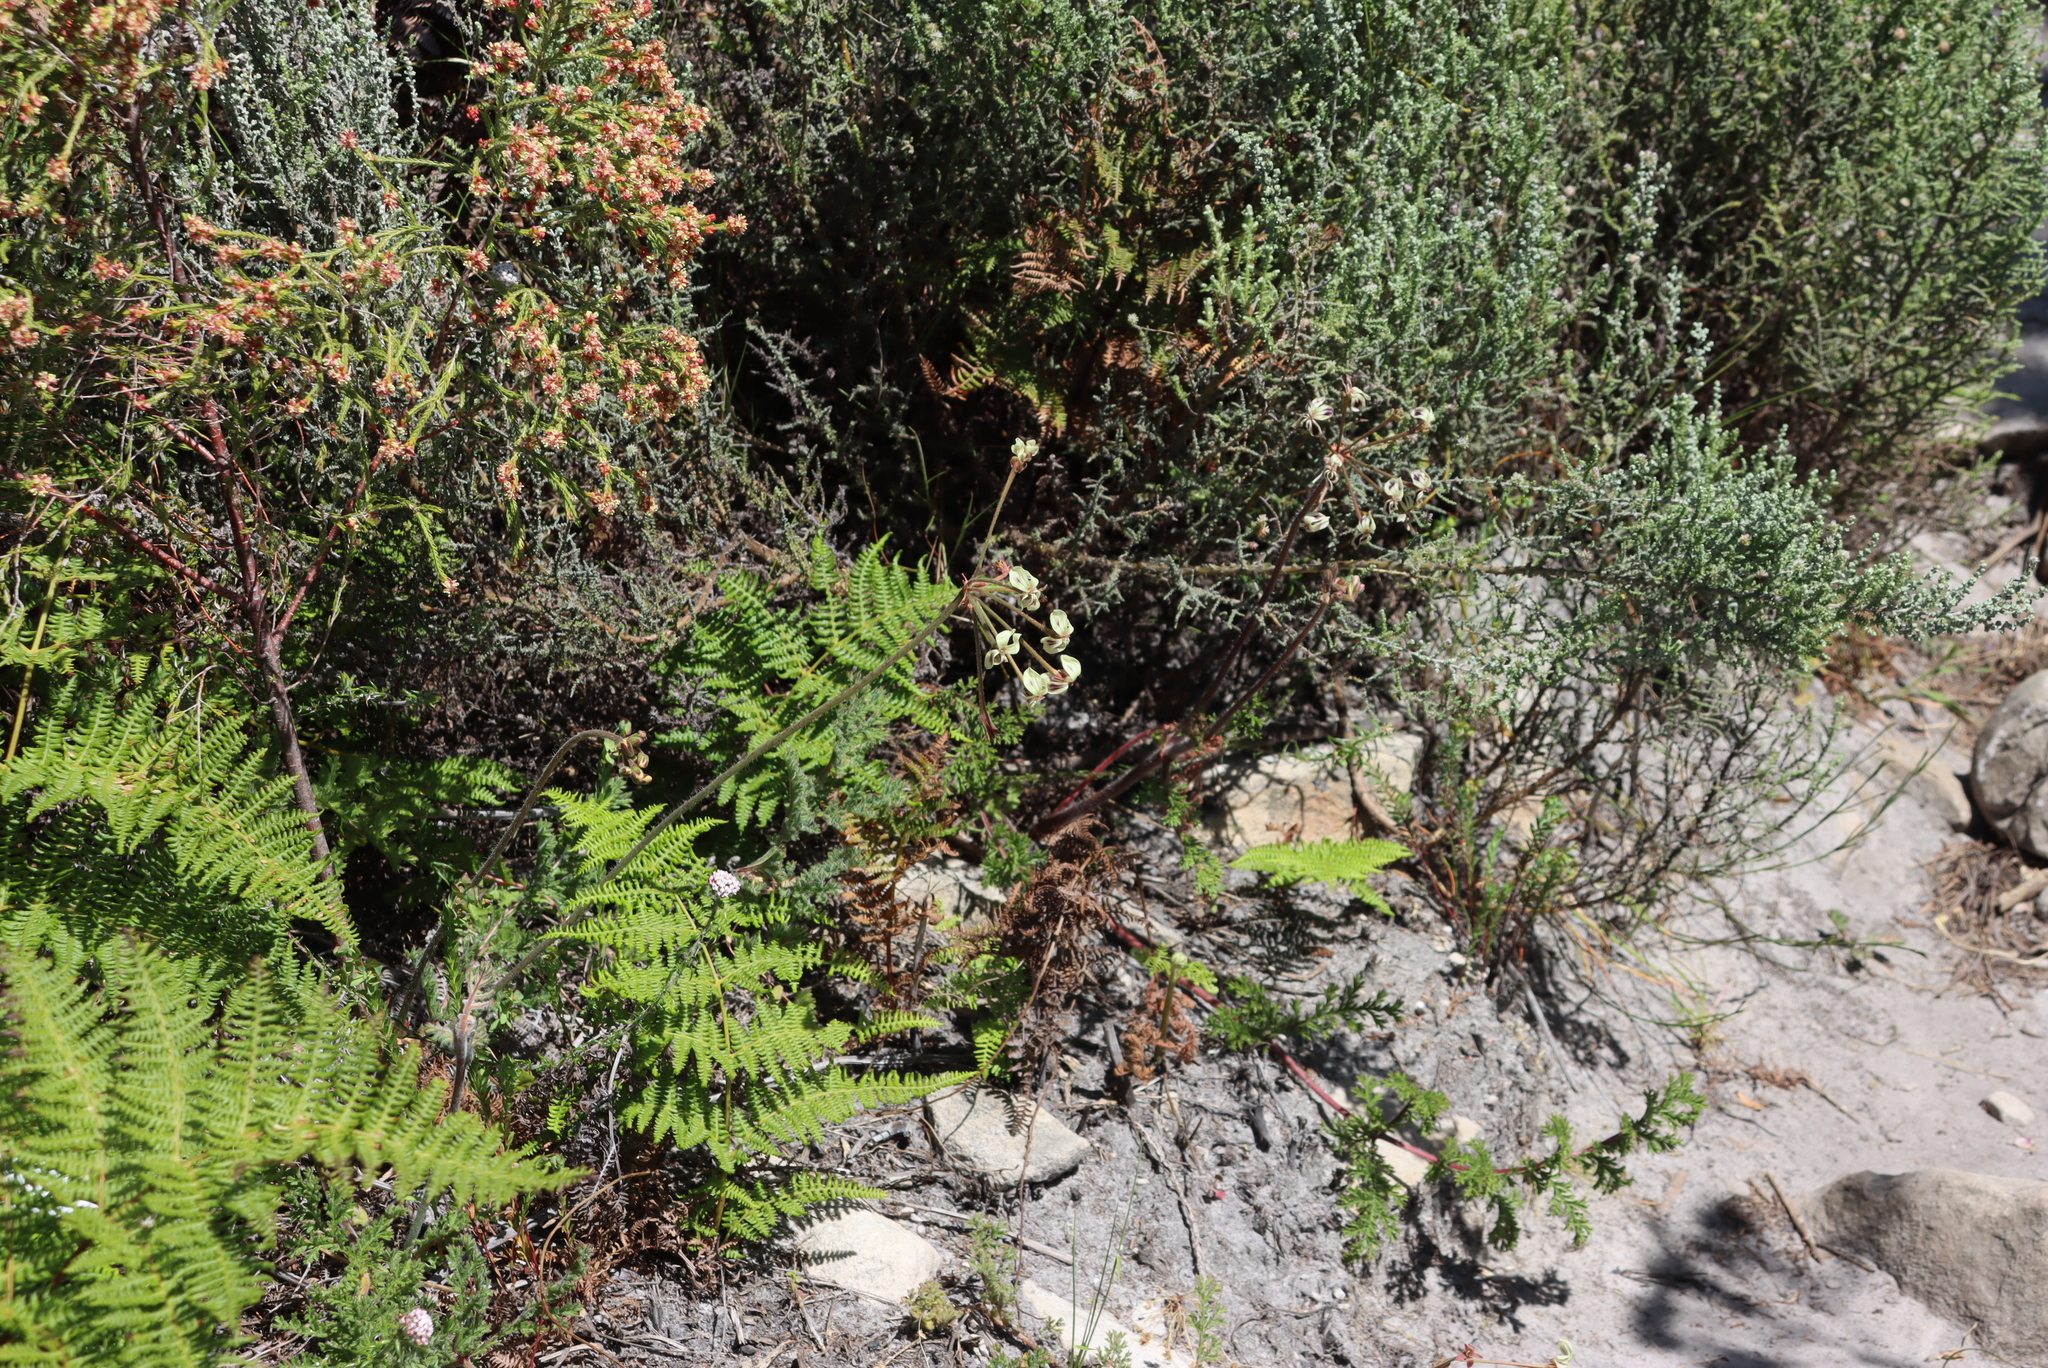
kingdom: Plantae
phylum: Tracheophyta
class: Magnoliopsida
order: Geraniales
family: Geraniaceae
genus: Pelargonium
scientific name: Pelargonium triste
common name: Night-scent pelargonium
